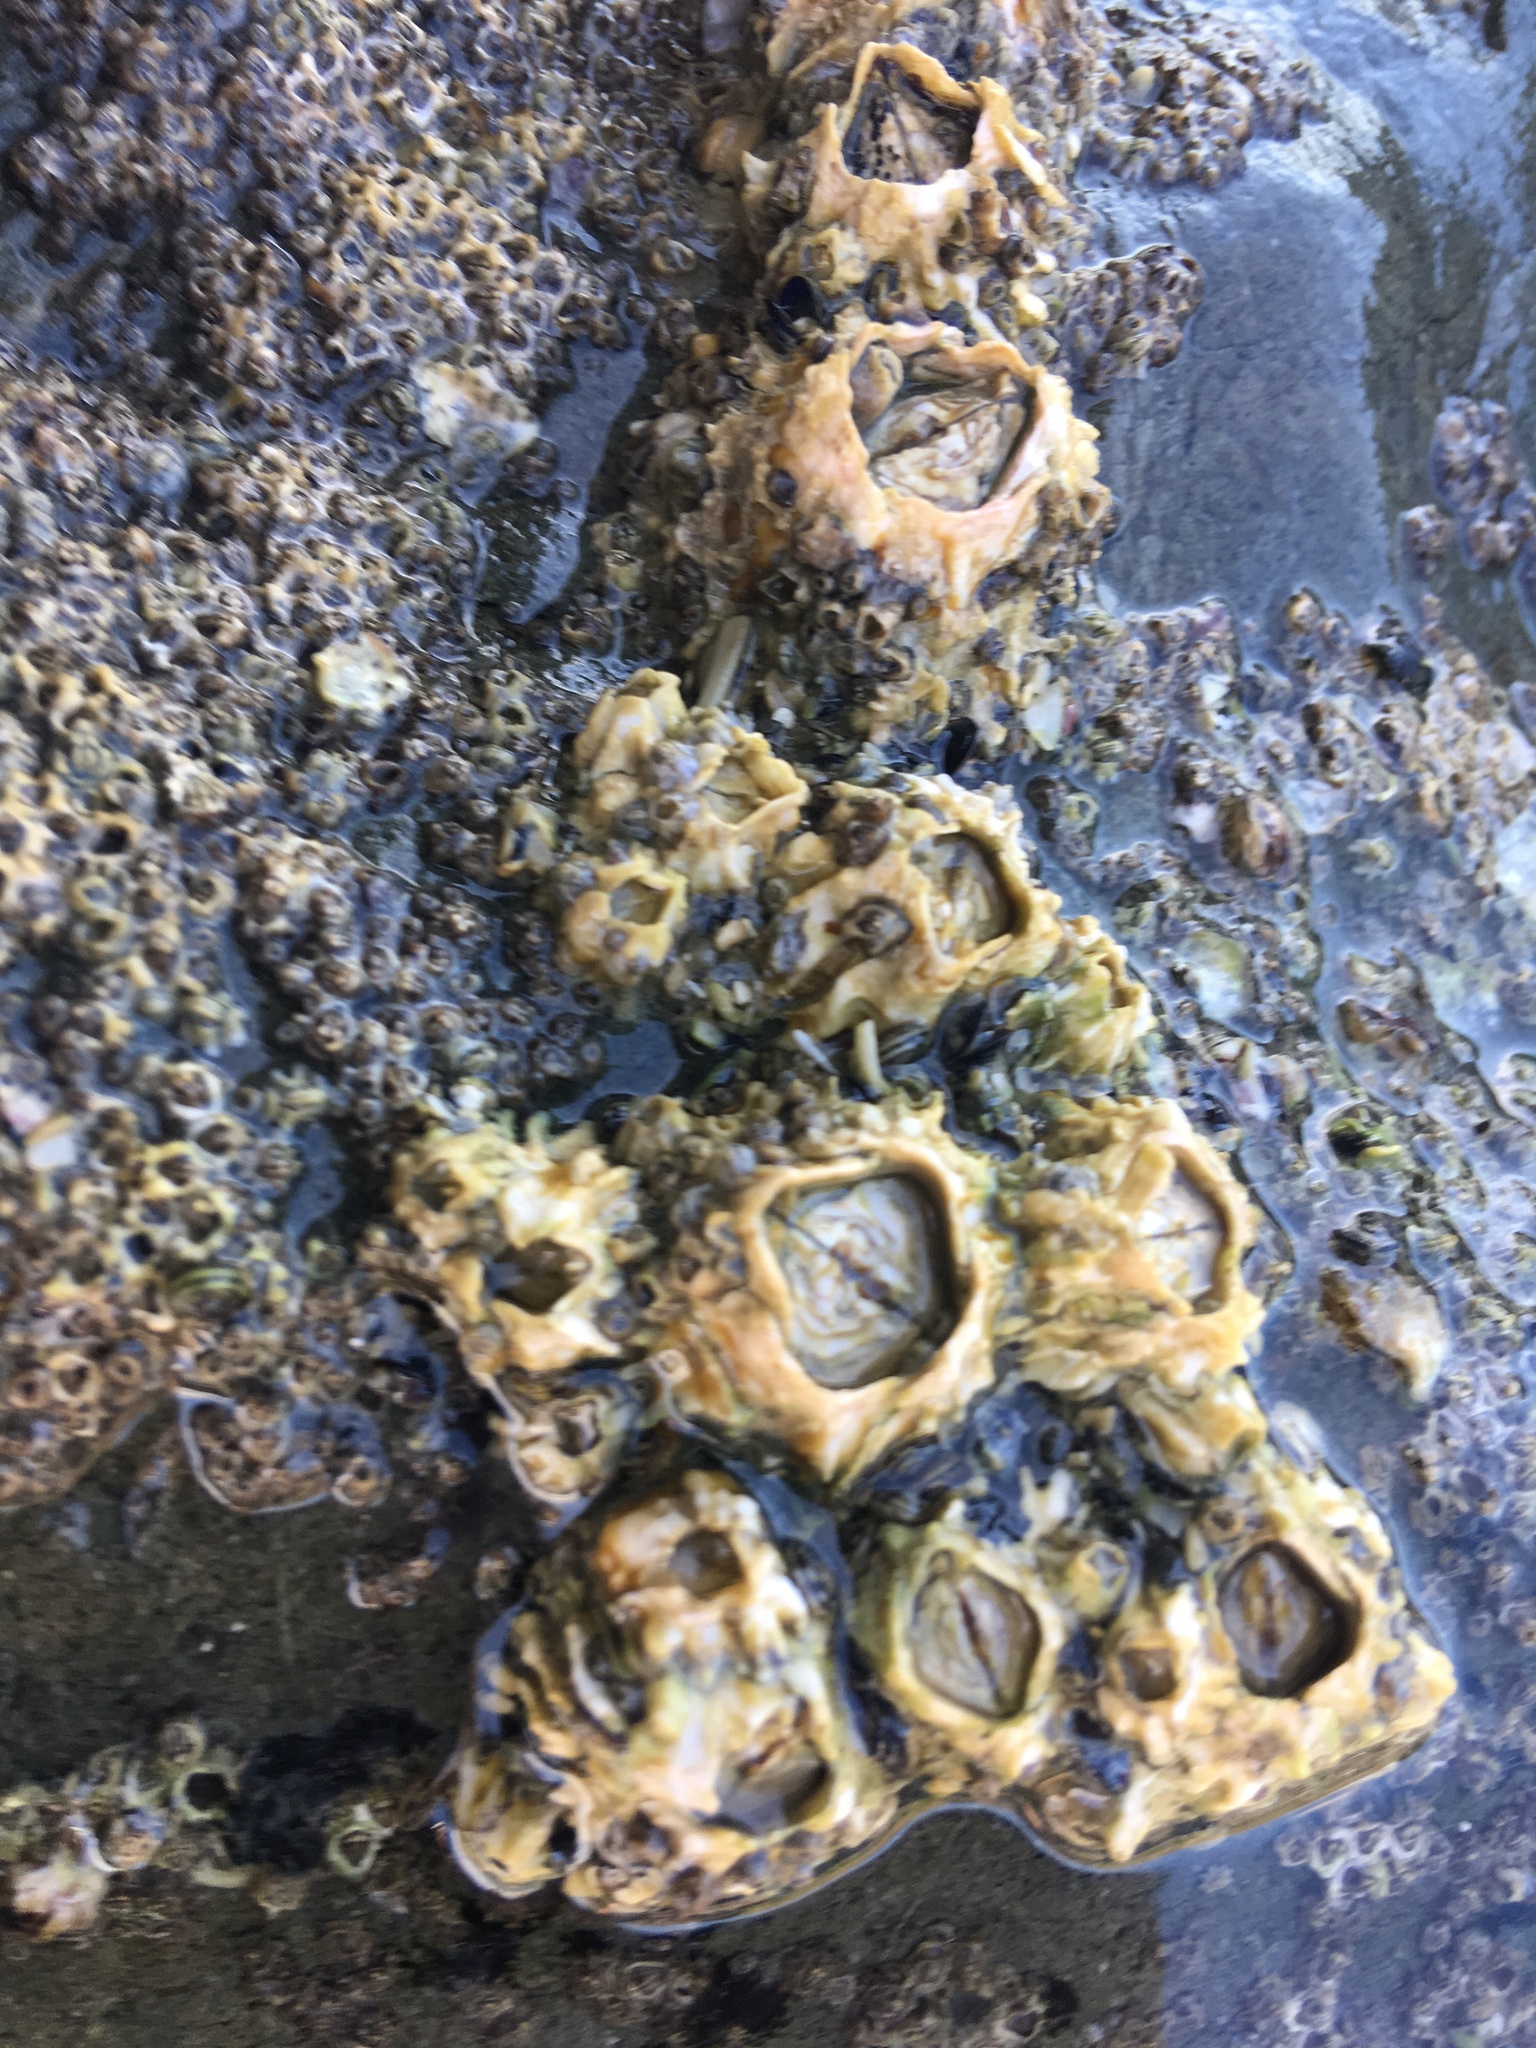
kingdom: Animalia
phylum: Arthropoda
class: Maxillopoda
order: Sessilia
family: Tetraclitidae
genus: Epopella
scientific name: Epopella plicata
